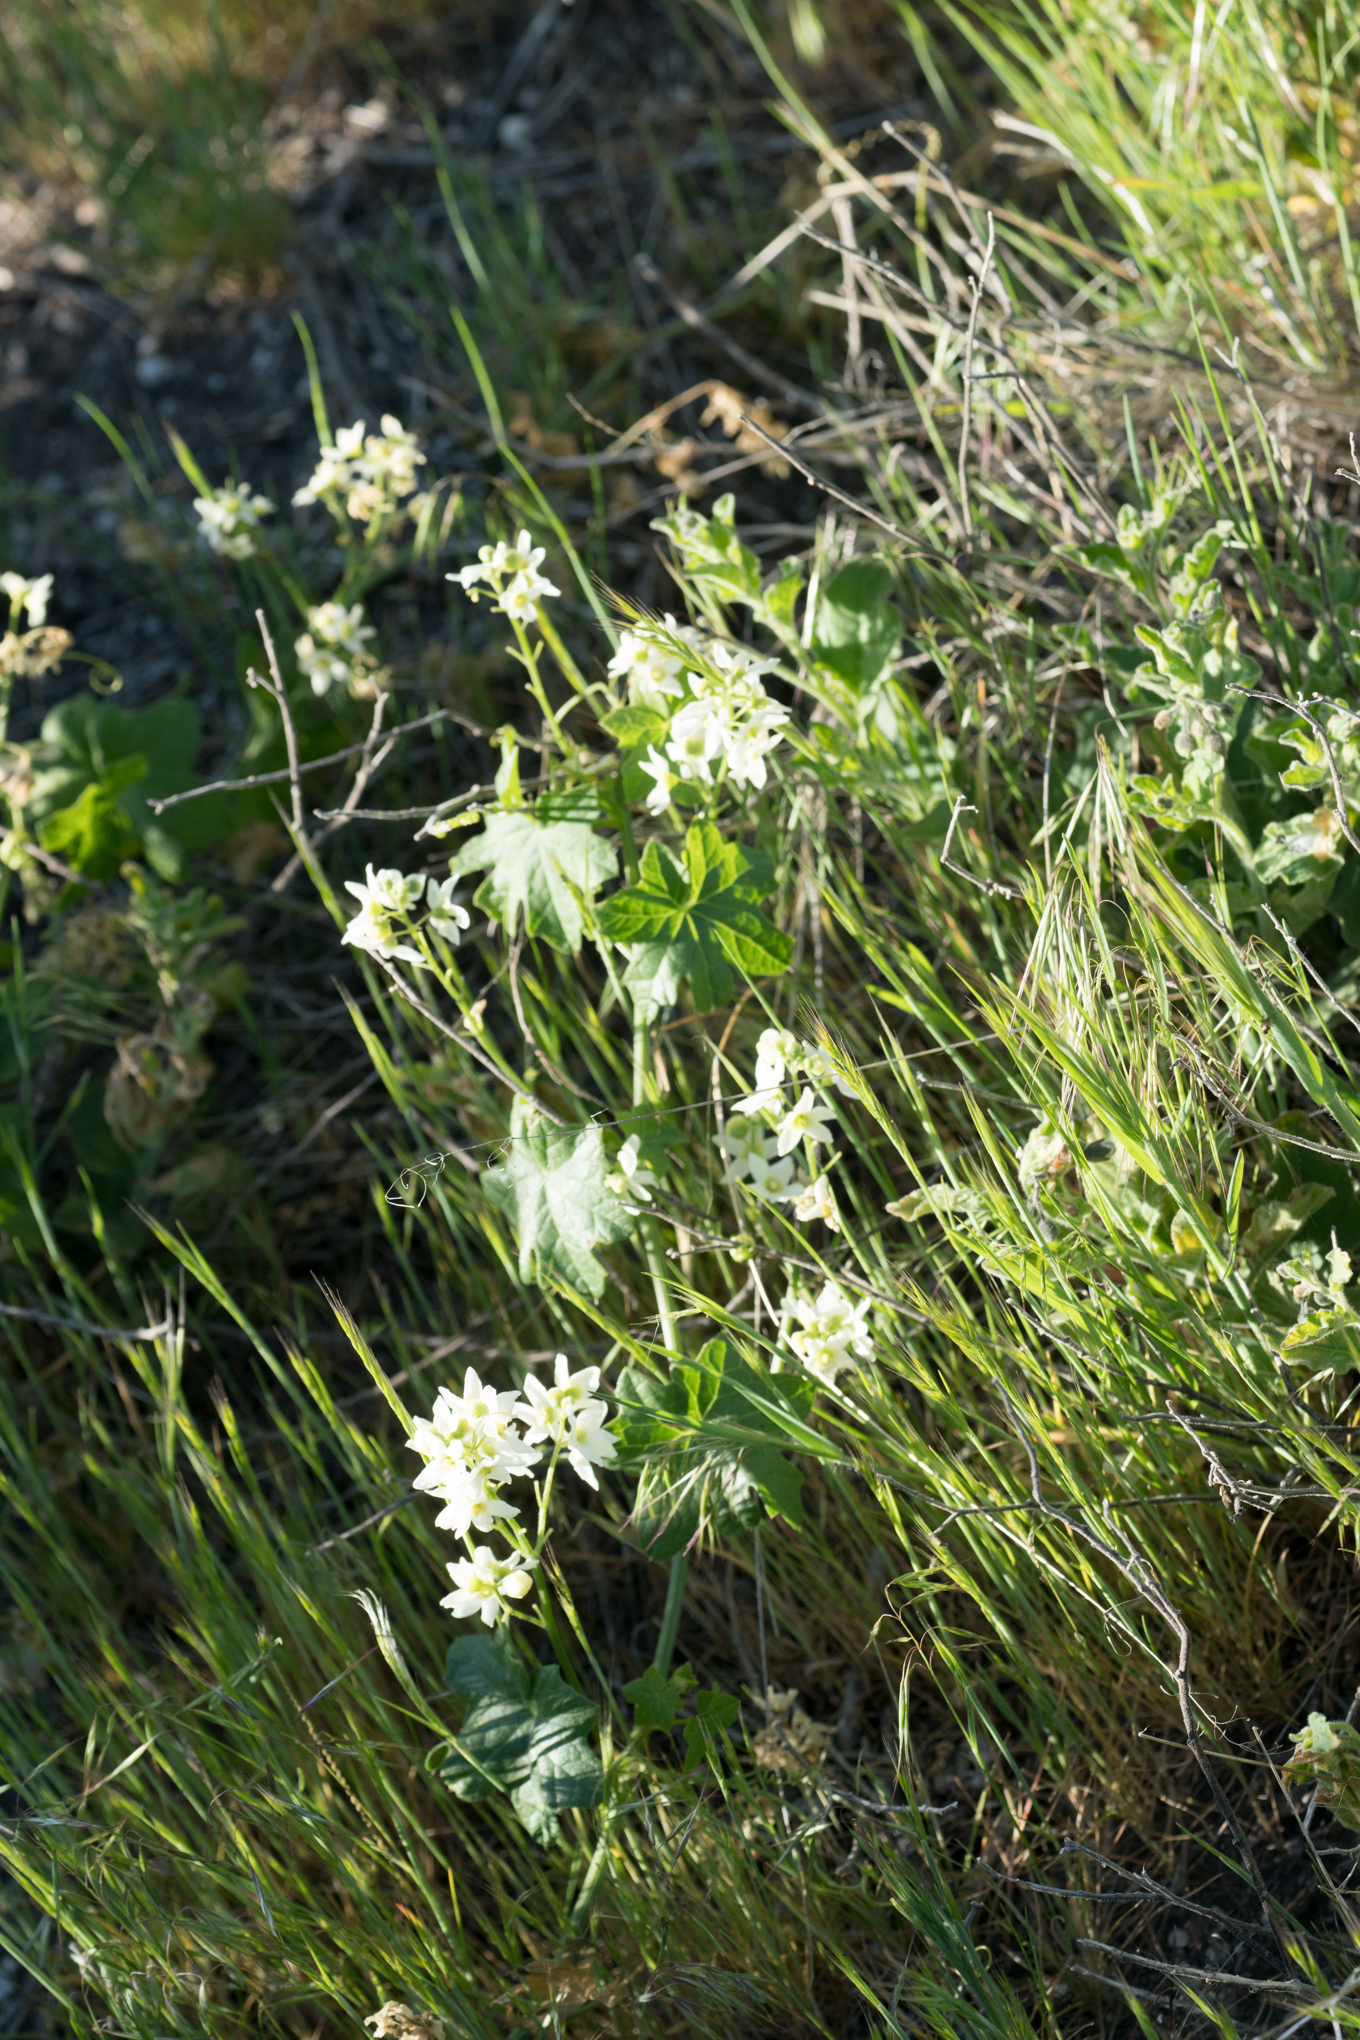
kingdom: Plantae
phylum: Tracheophyta
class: Magnoliopsida
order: Cucurbitales
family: Cucurbitaceae
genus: Marah
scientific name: Marah macrocarpa
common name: Cucamonga manroot
